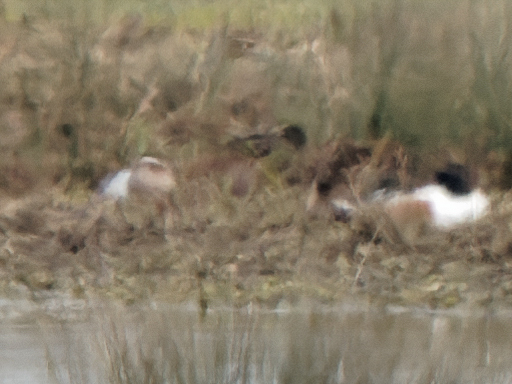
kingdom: Animalia
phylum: Chordata
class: Aves
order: Anseriformes
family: Anatidae
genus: Spatula
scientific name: Spatula querquedula
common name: Garganey
